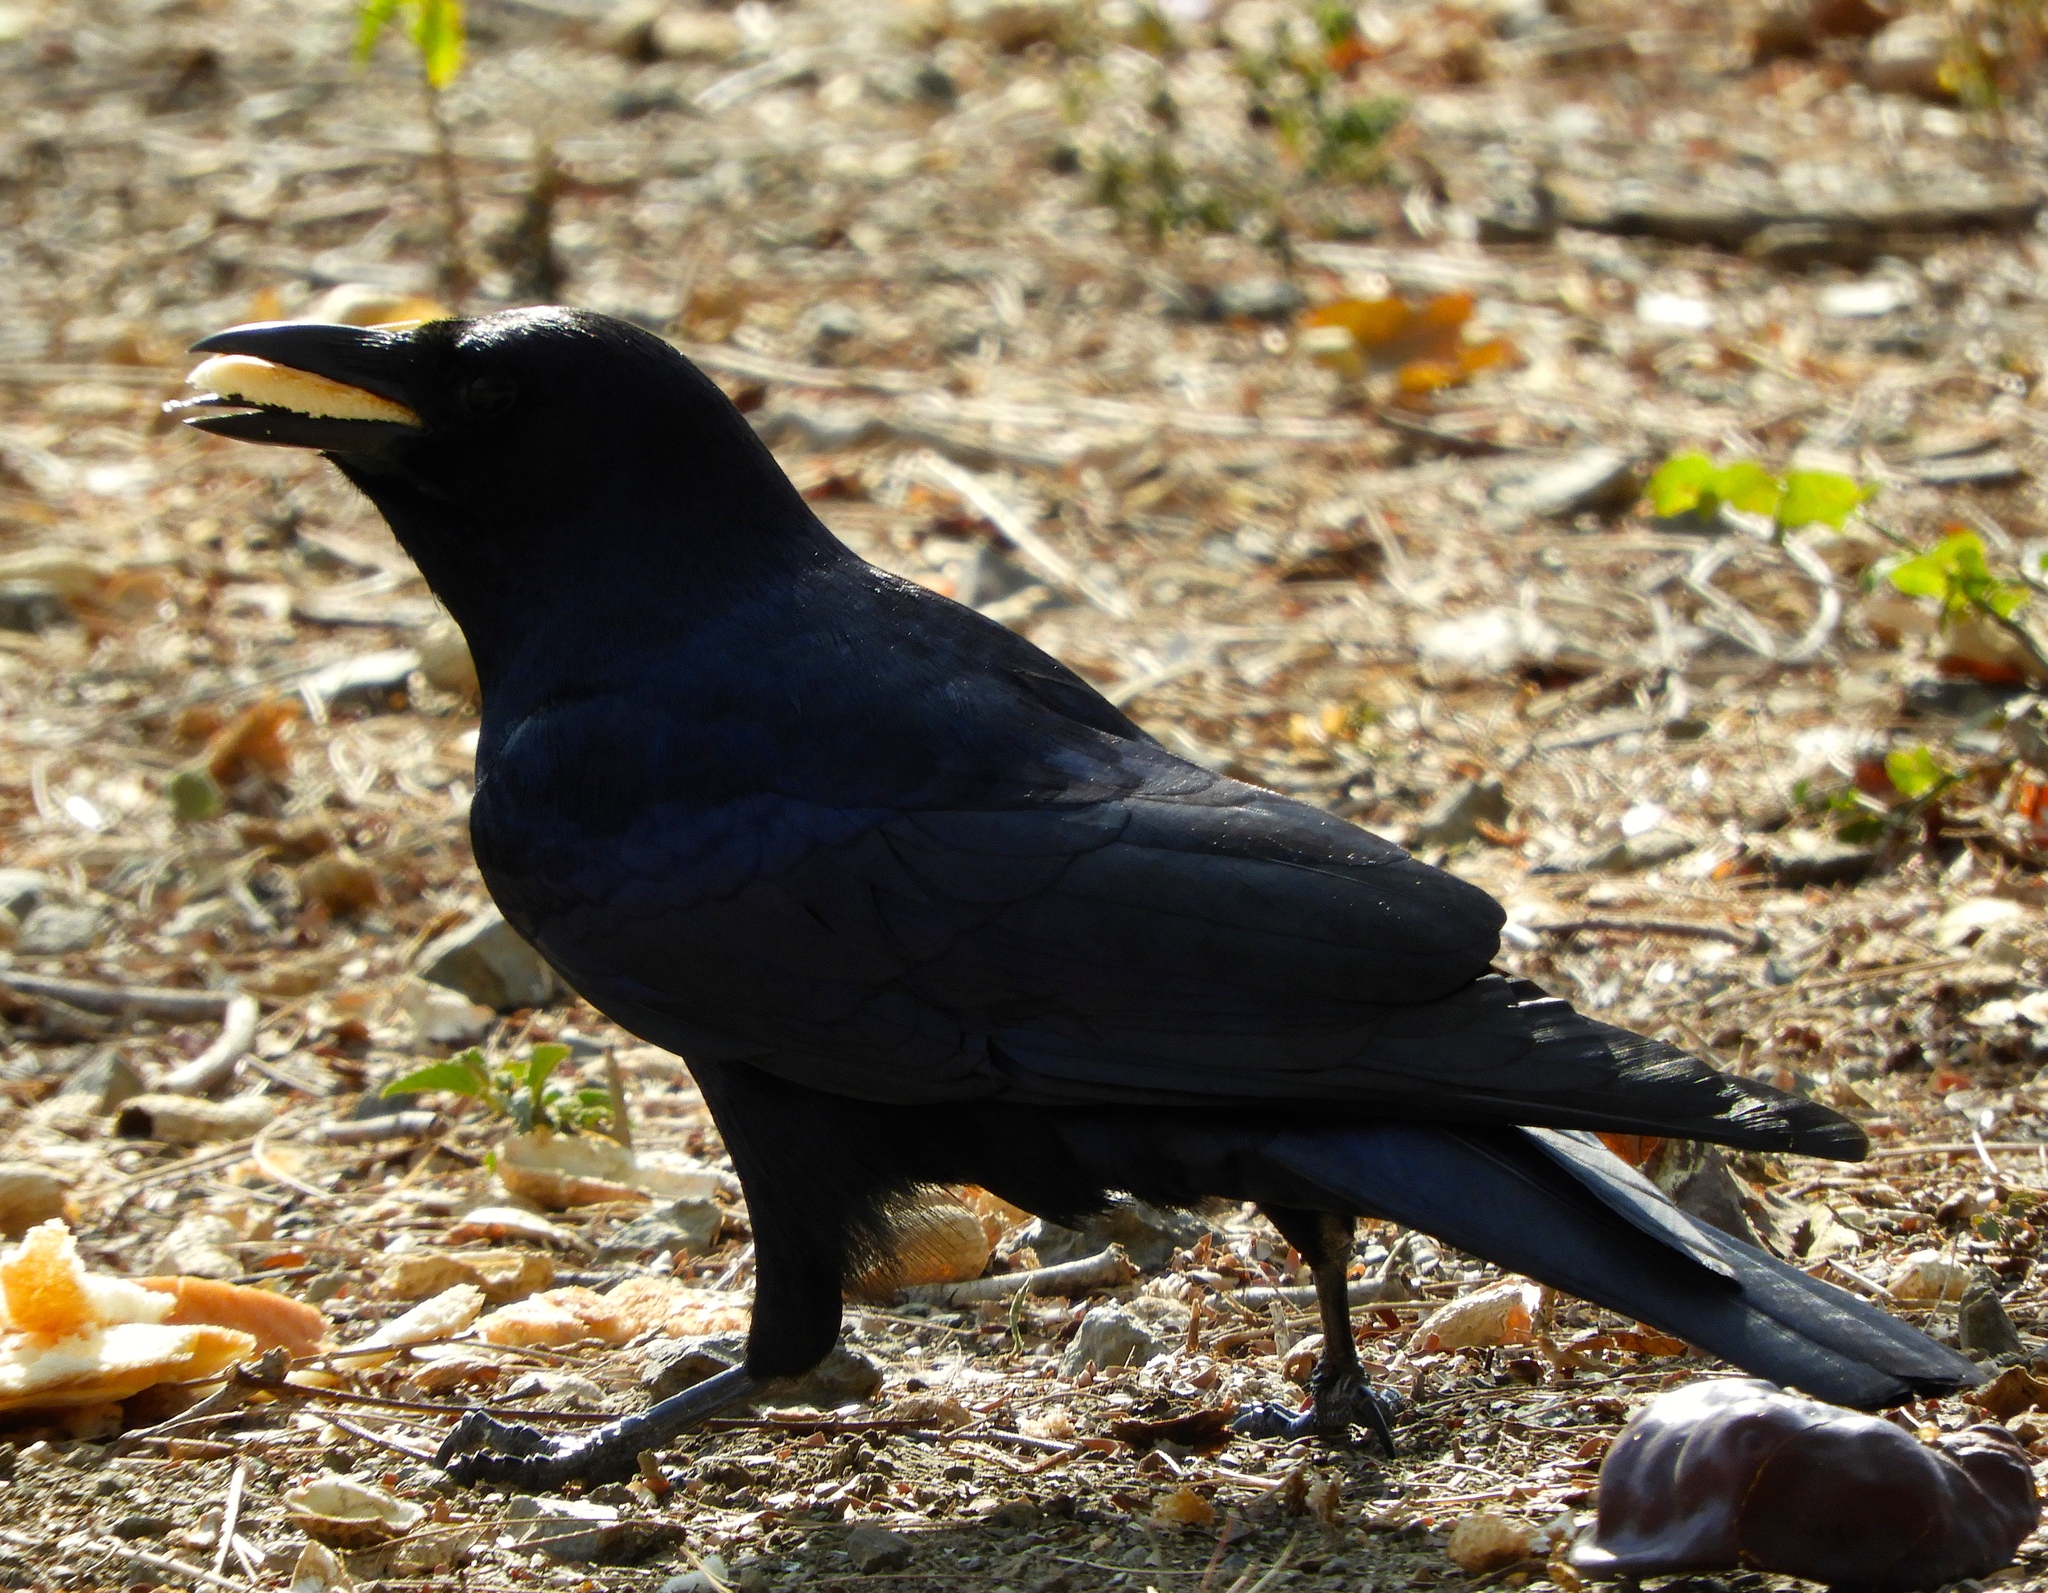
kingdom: Animalia
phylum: Chordata
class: Aves
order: Passeriformes
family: Corvidae
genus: Corvus
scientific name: Corvus sinaloae
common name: Sinaloa crow
